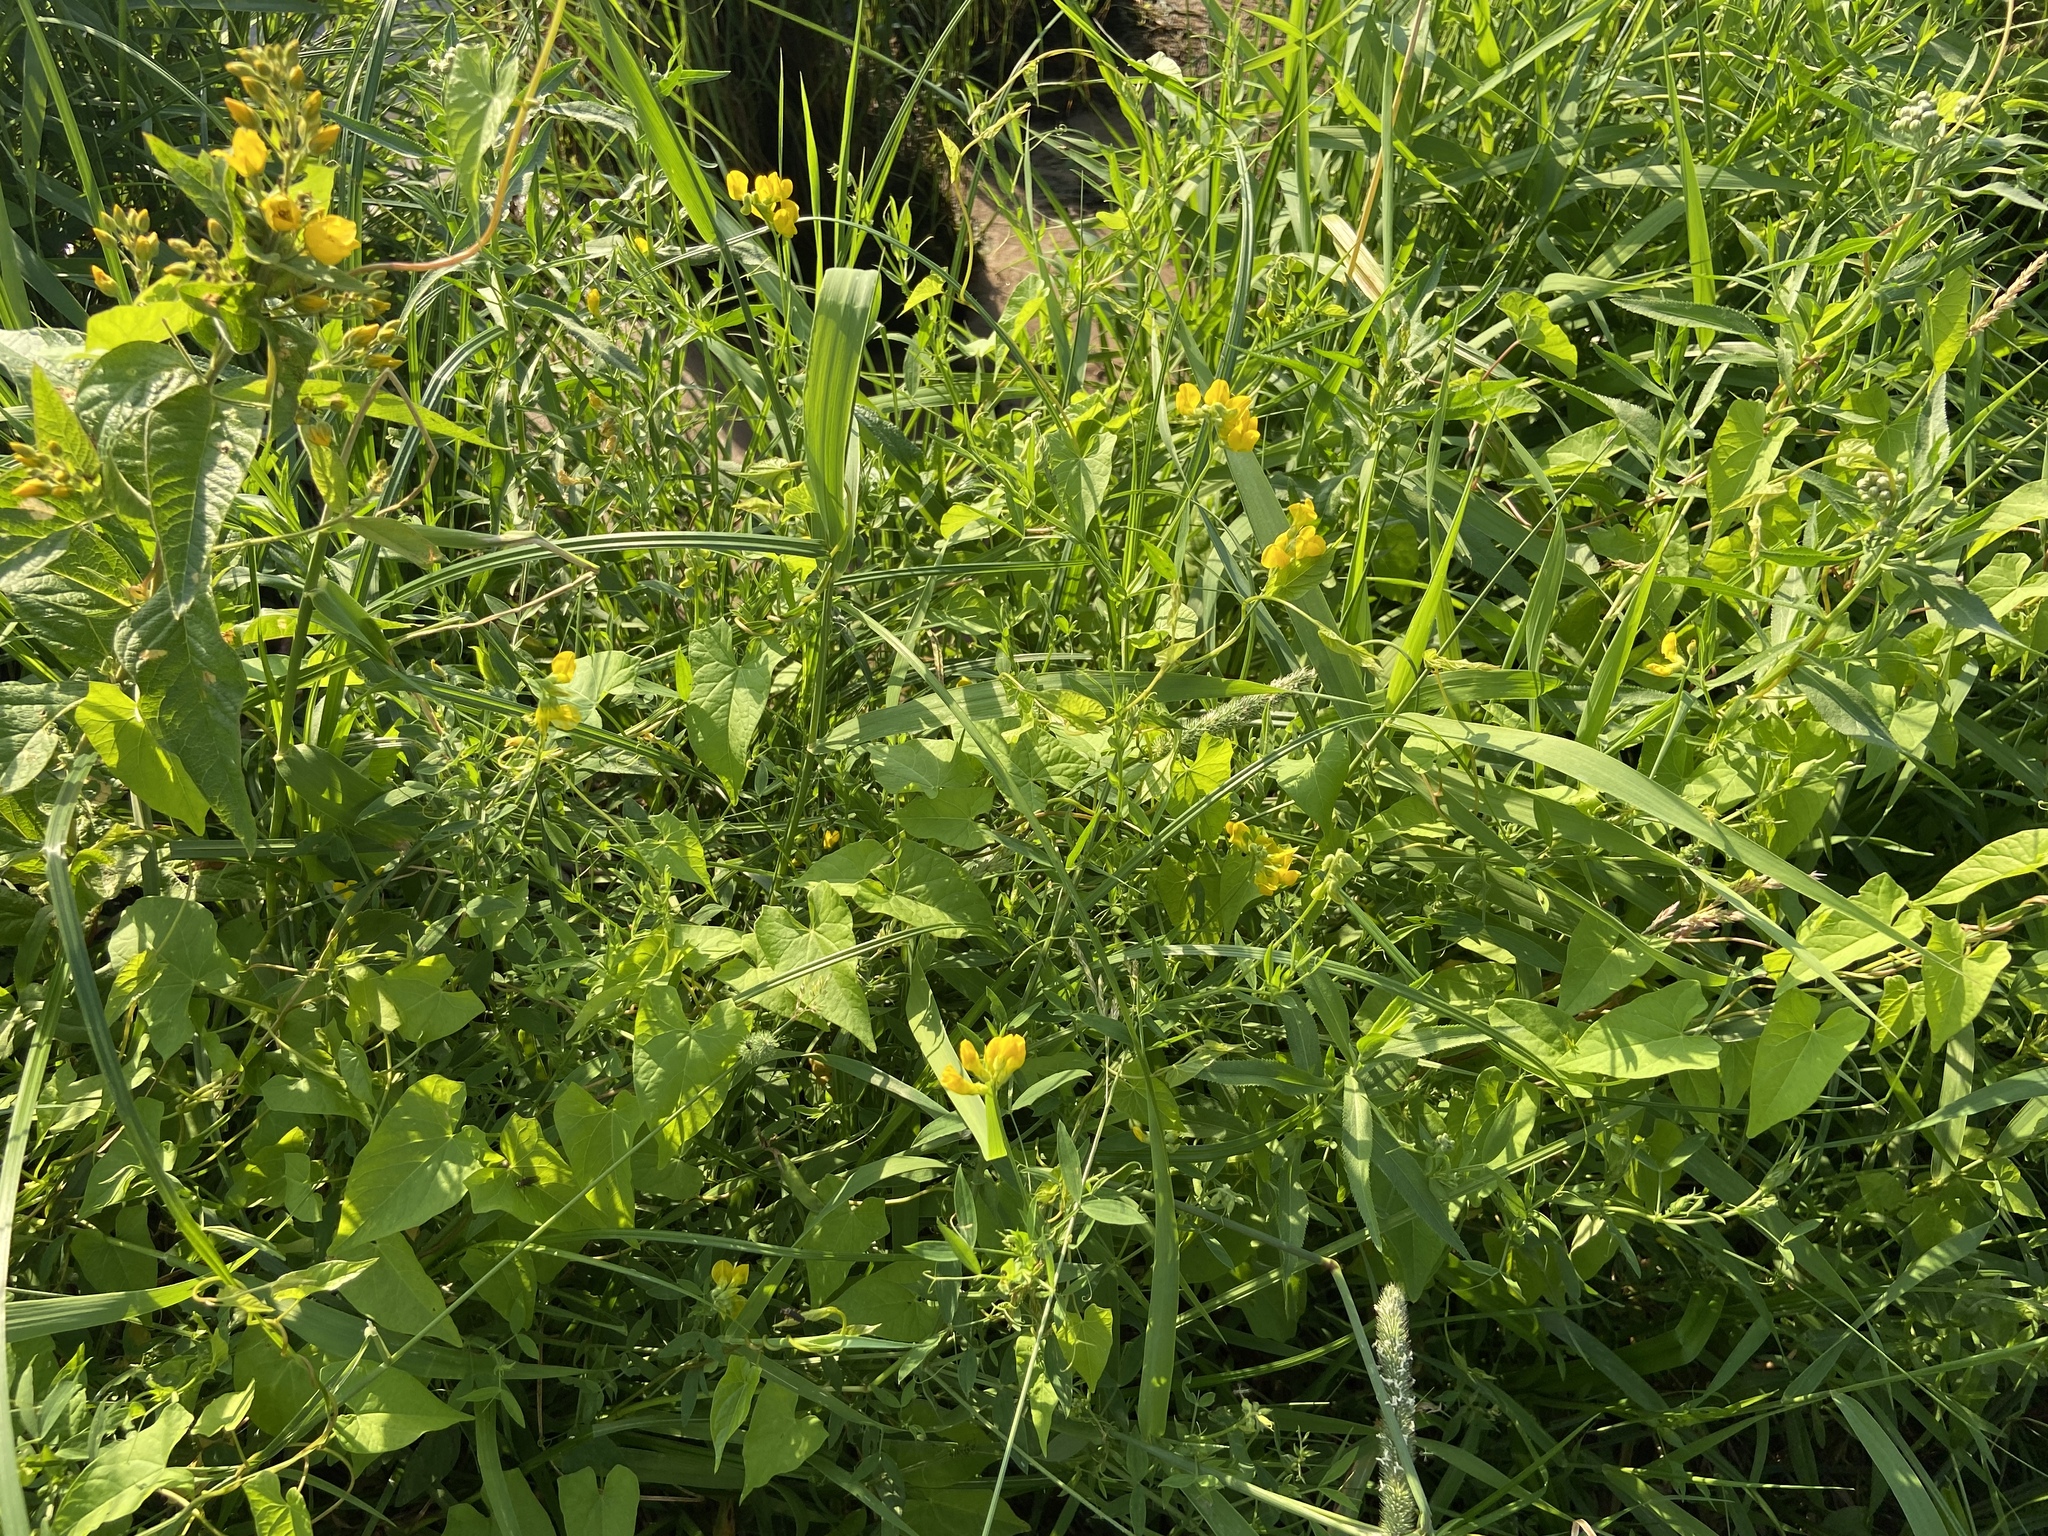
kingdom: Plantae
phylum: Tracheophyta
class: Magnoliopsida
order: Fabales
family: Fabaceae
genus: Lathyrus
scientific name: Lathyrus pratensis
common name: Meadow vetchling
